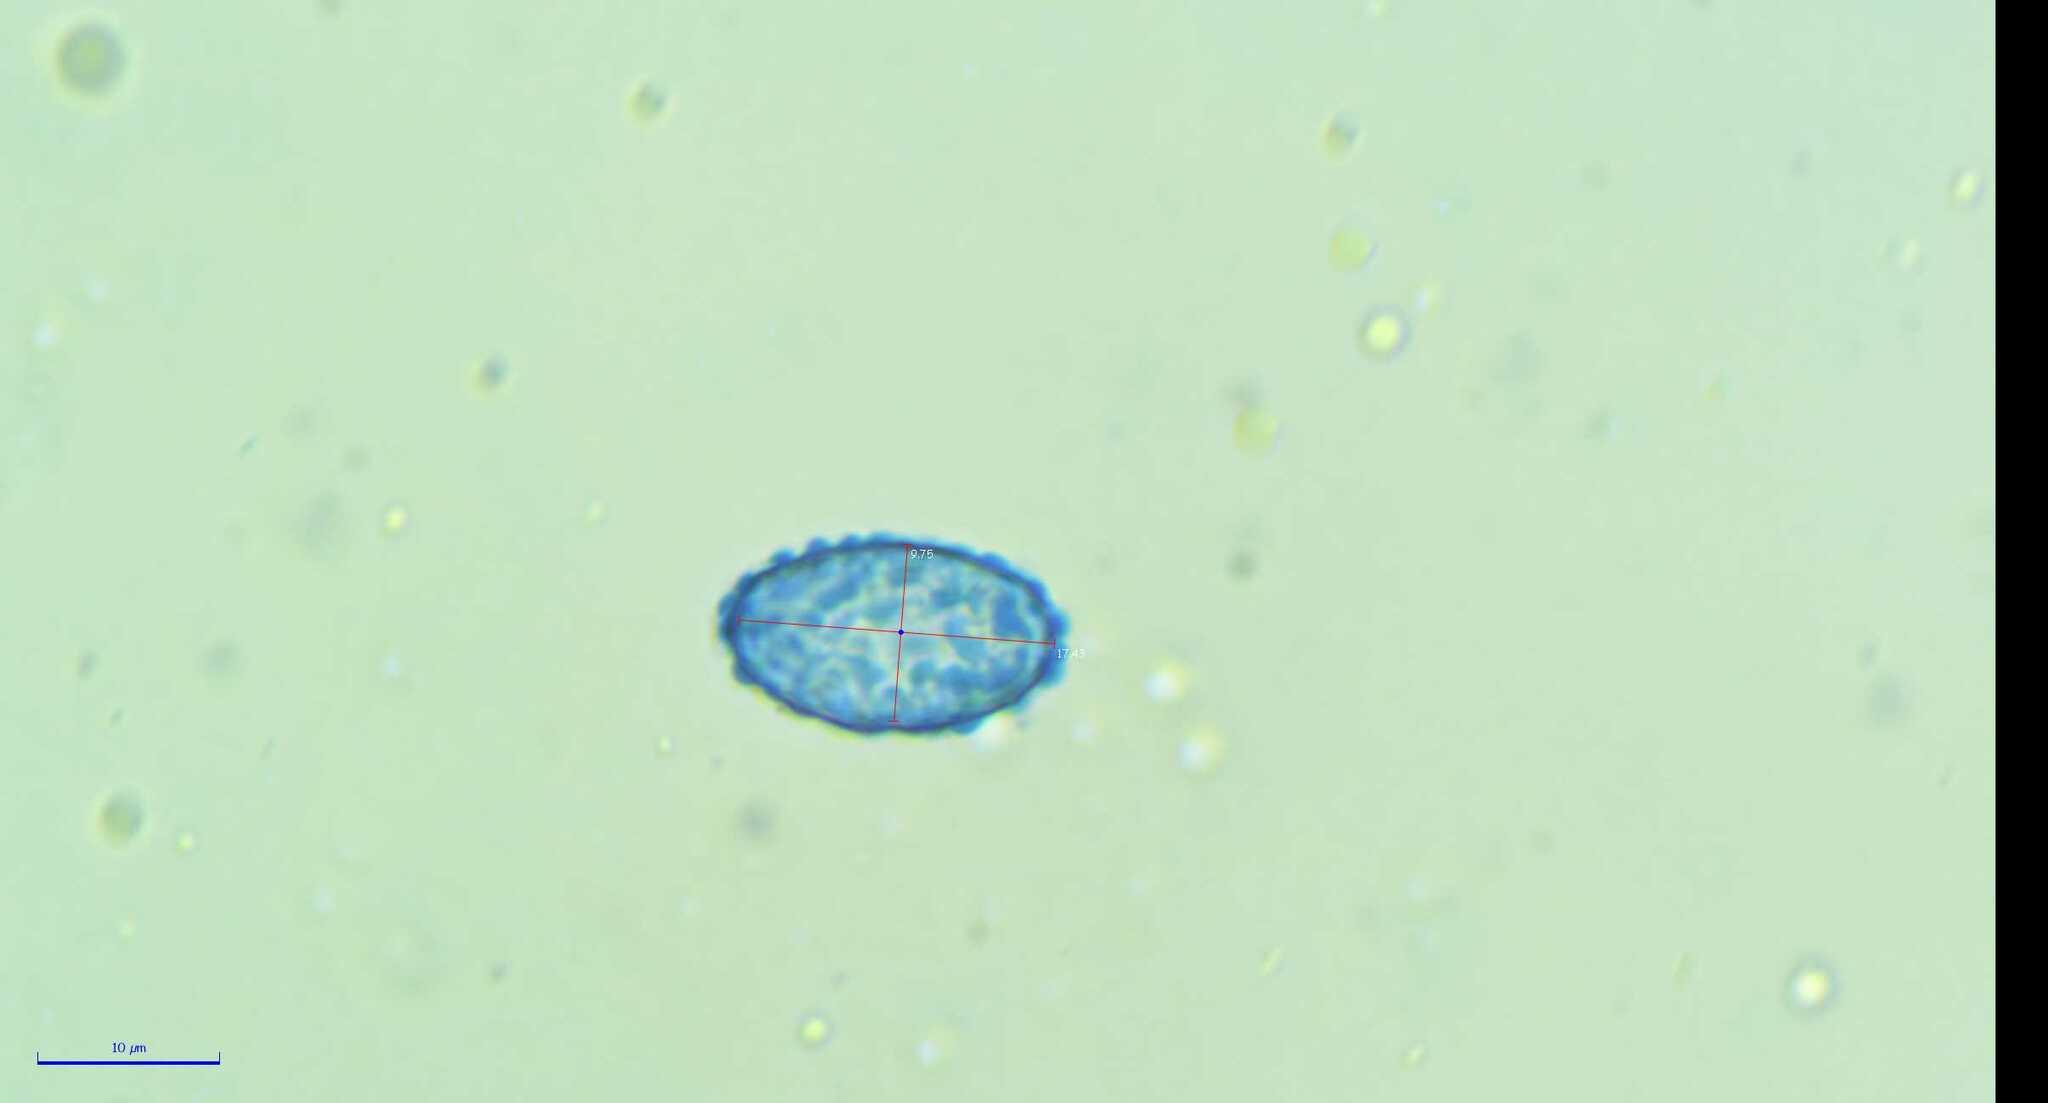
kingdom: Fungi
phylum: Ascomycota
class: Pezizomycetes
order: Pezizales
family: Pyronemataceae
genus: Scutellinia
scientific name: Scutellinia pennsylvanica
